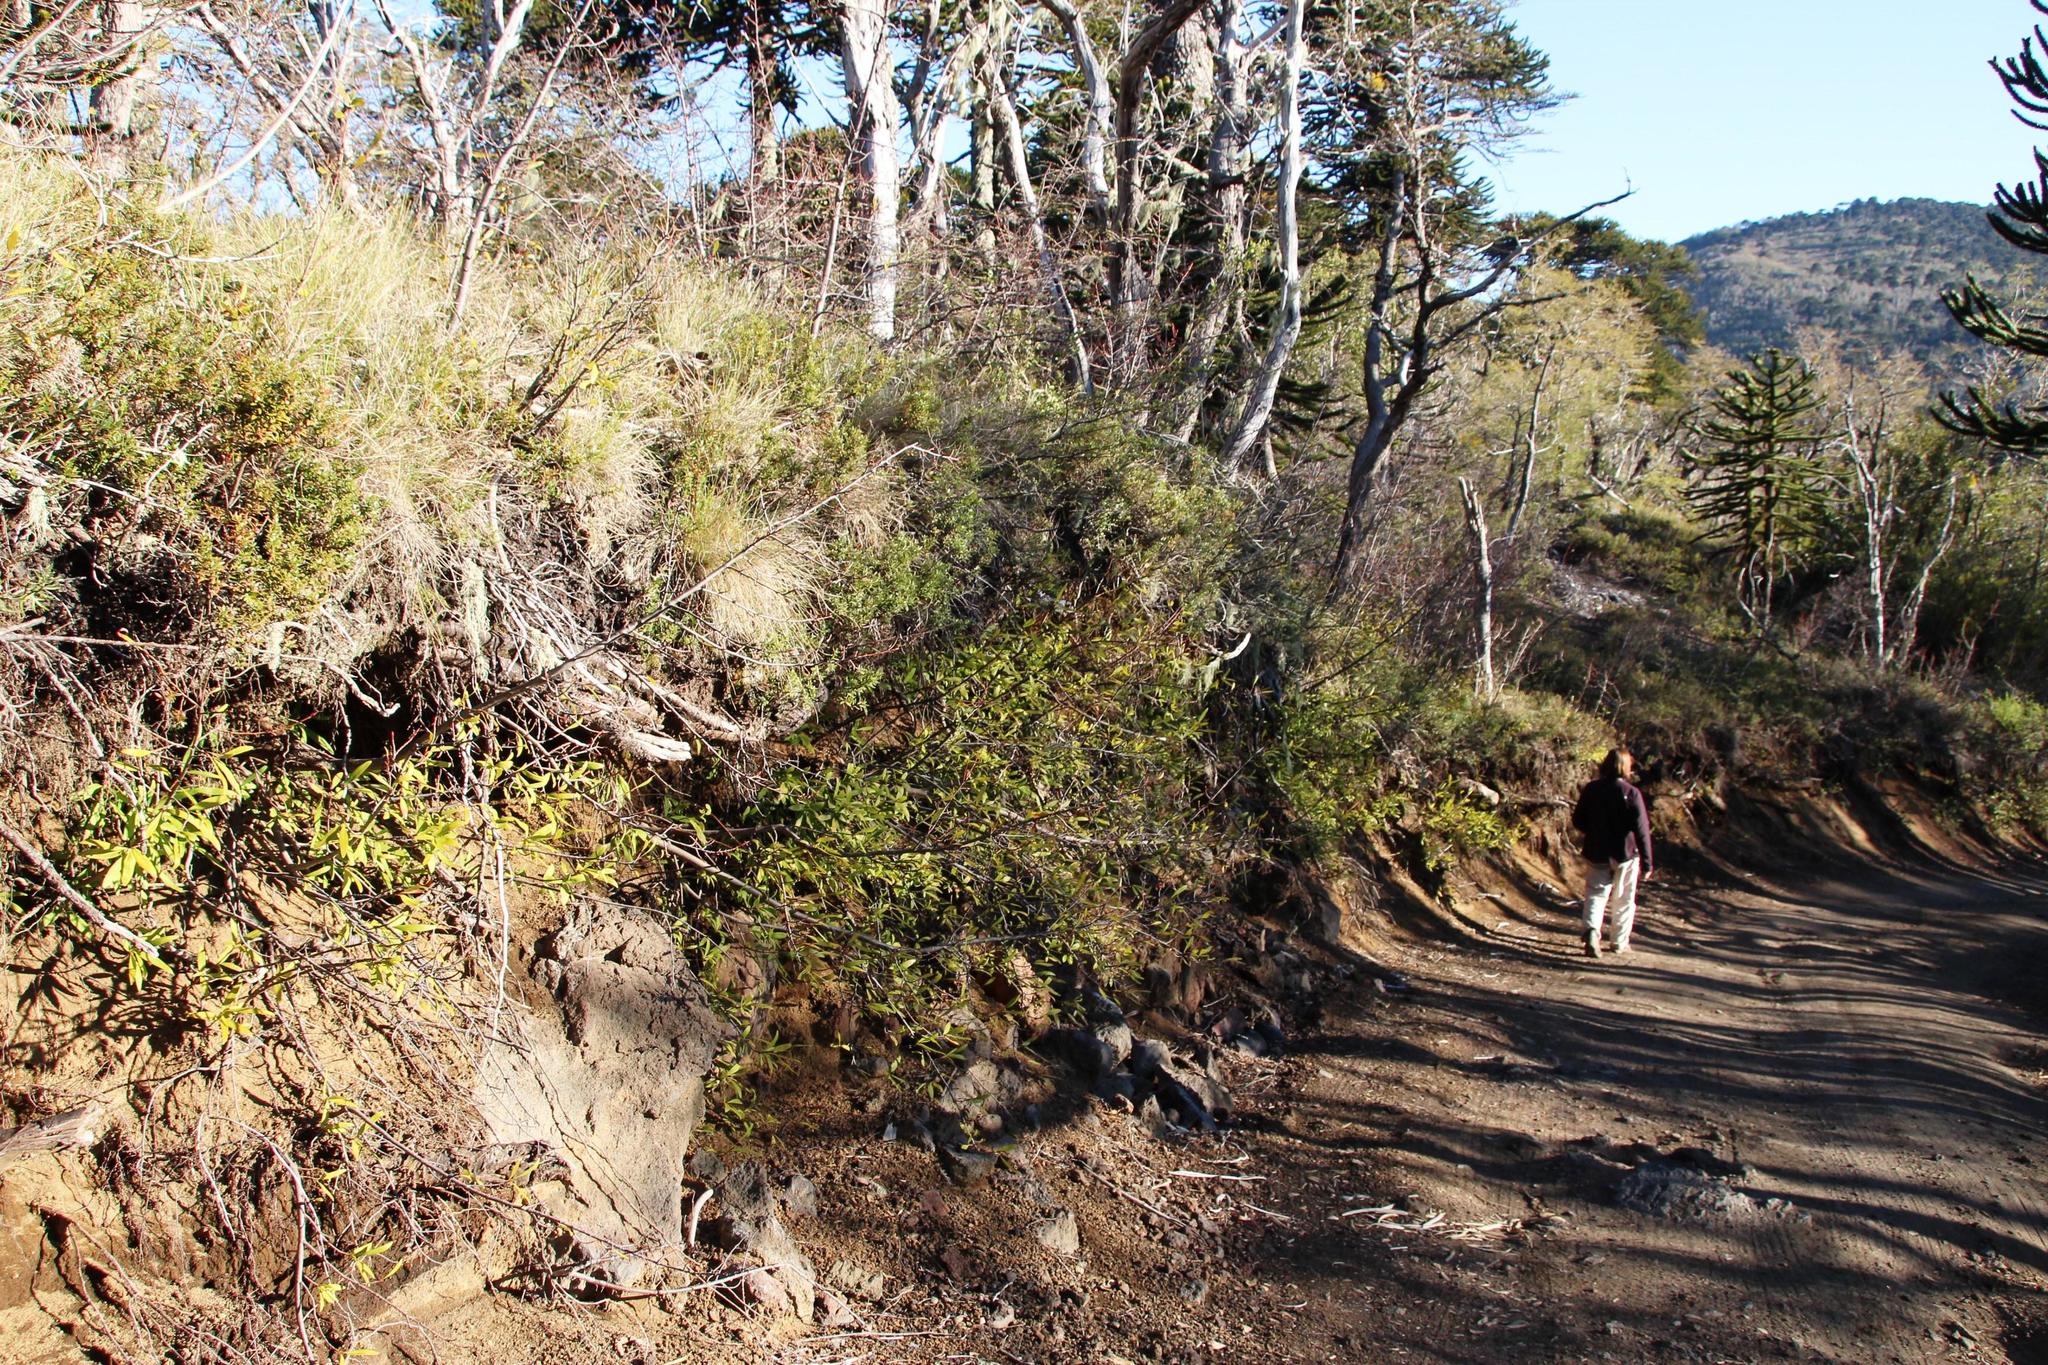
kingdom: Plantae
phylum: Tracheophyta
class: Magnoliopsida
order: Proteales
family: Proteaceae
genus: Embothrium
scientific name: Embothrium coccineum
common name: Chilean firebush
